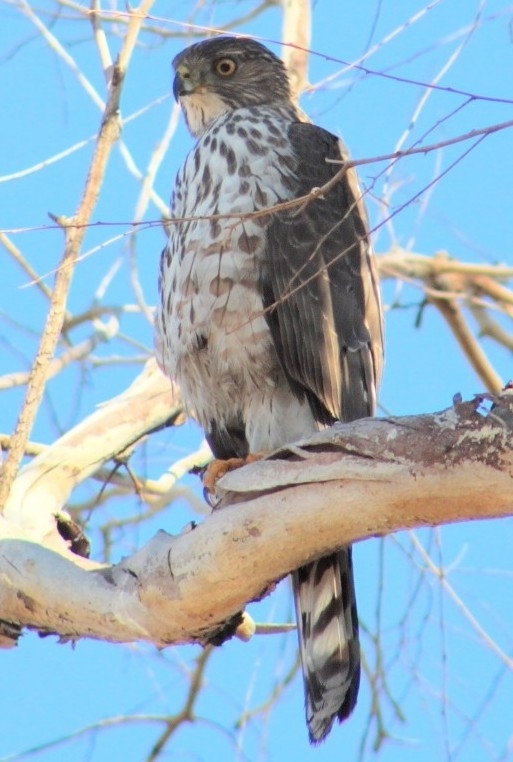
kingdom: Animalia
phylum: Chordata
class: Aves
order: Accipitriformes
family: Accipitridae
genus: Accipiter
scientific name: Accipiter cooperii
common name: Cooper's hawk
